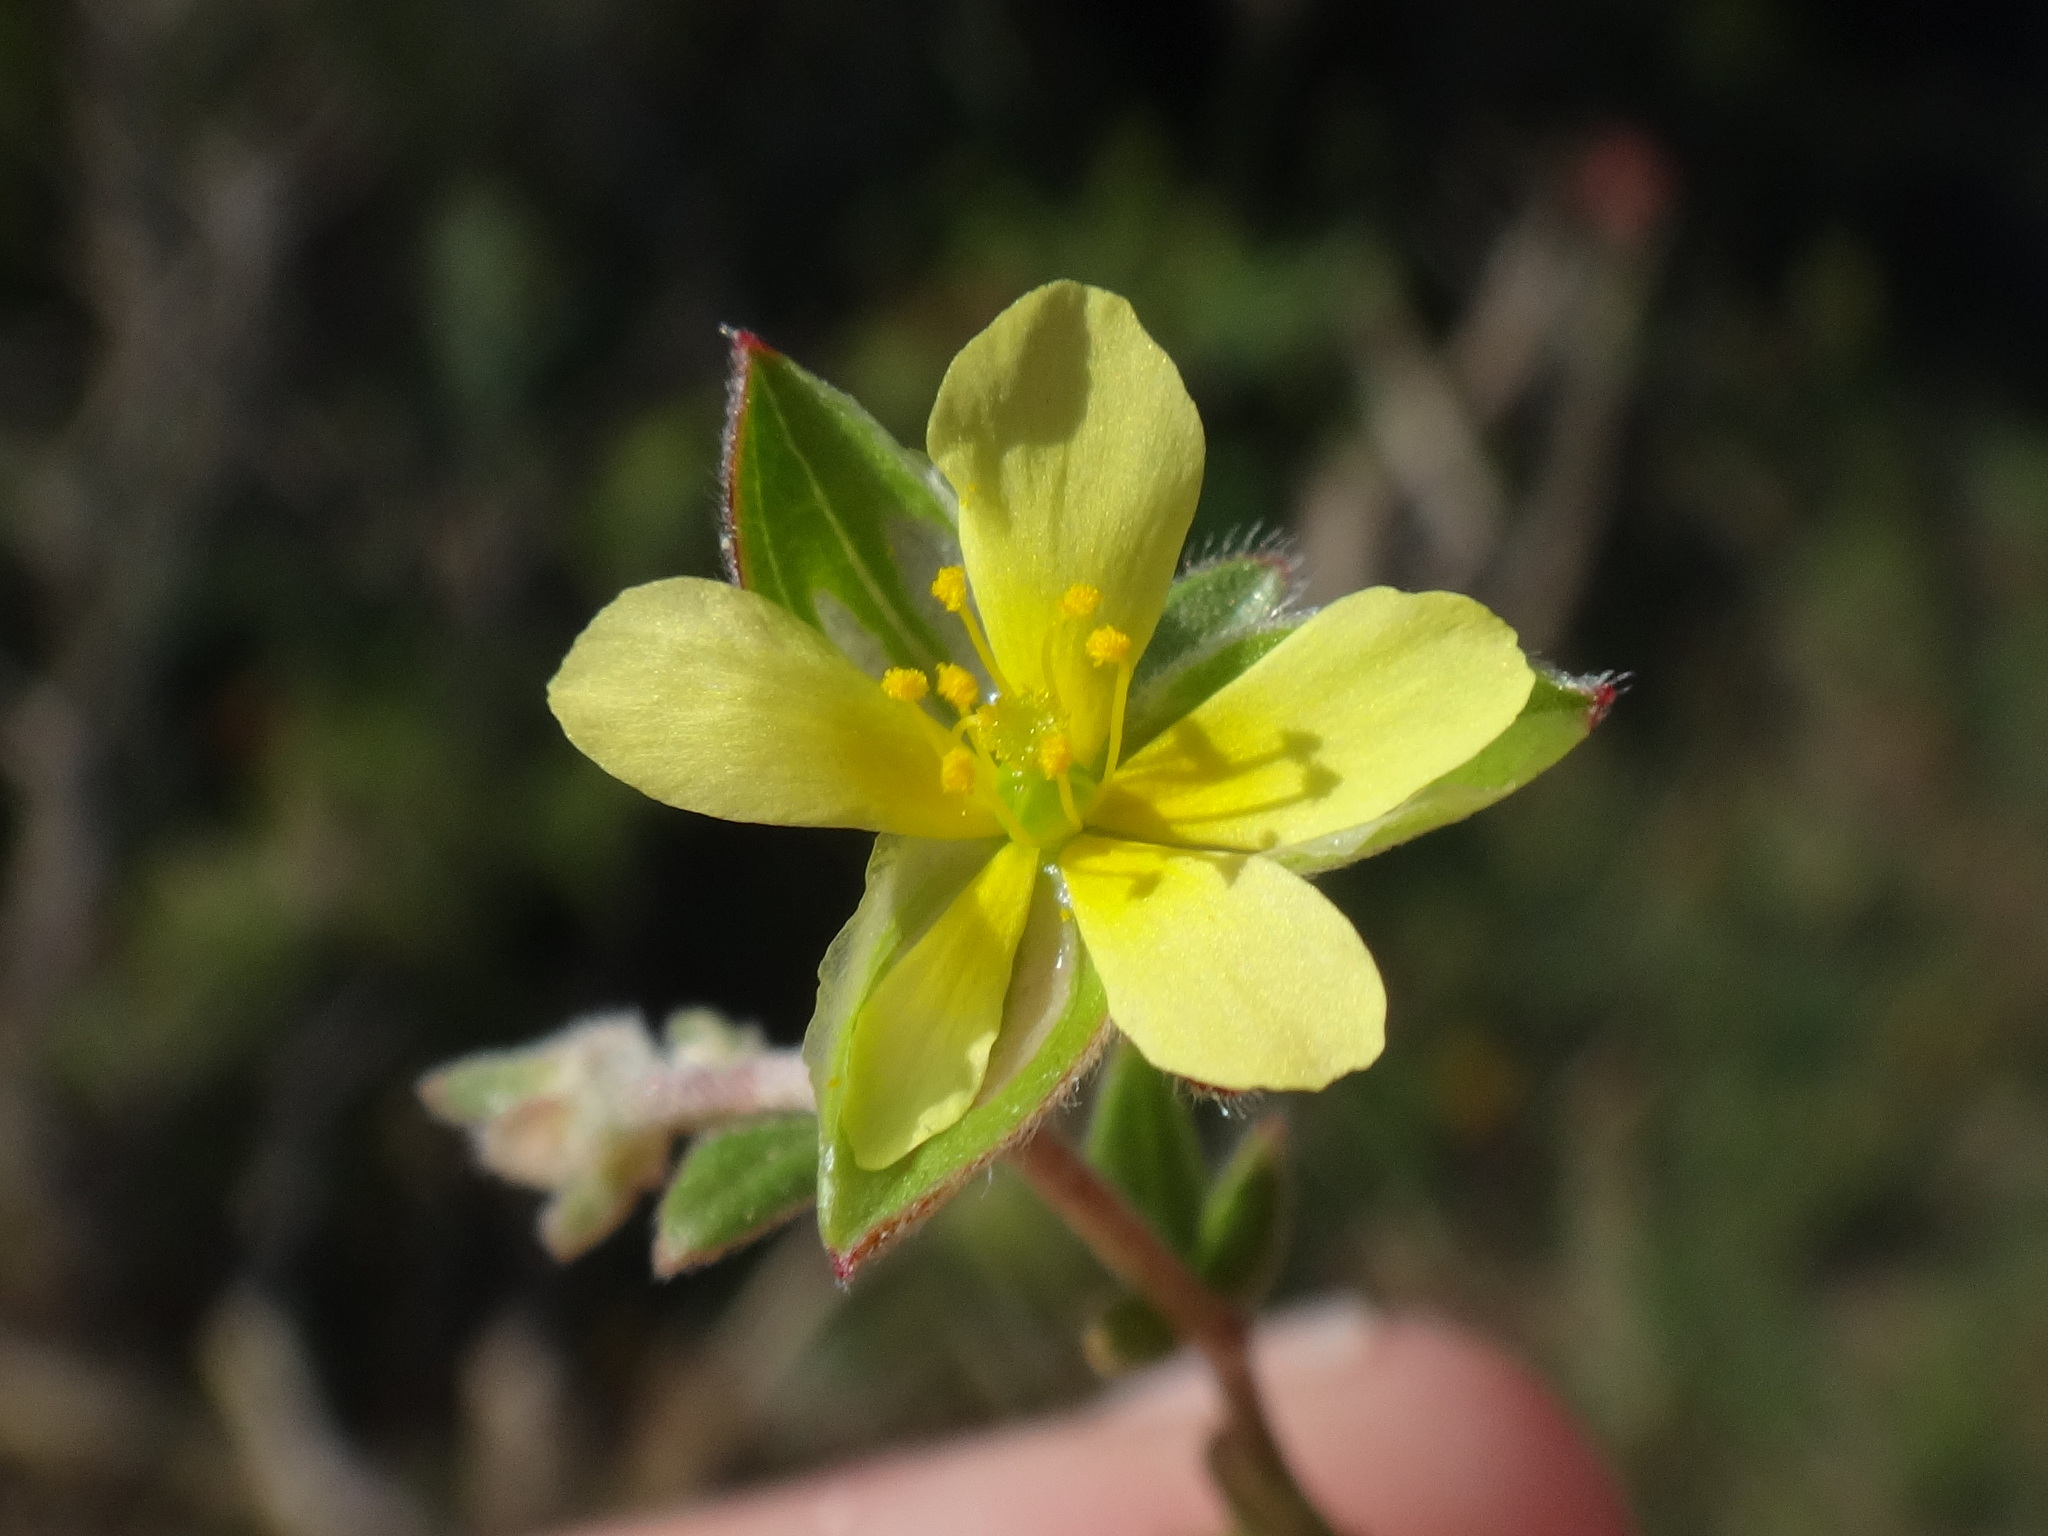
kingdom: Plantae
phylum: Tracheophyta
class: Magnoliopsida
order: Malvales
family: Cistaceae
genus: Helianthemum
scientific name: Helianthemum salicifolium
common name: Willowleaf frostweed
